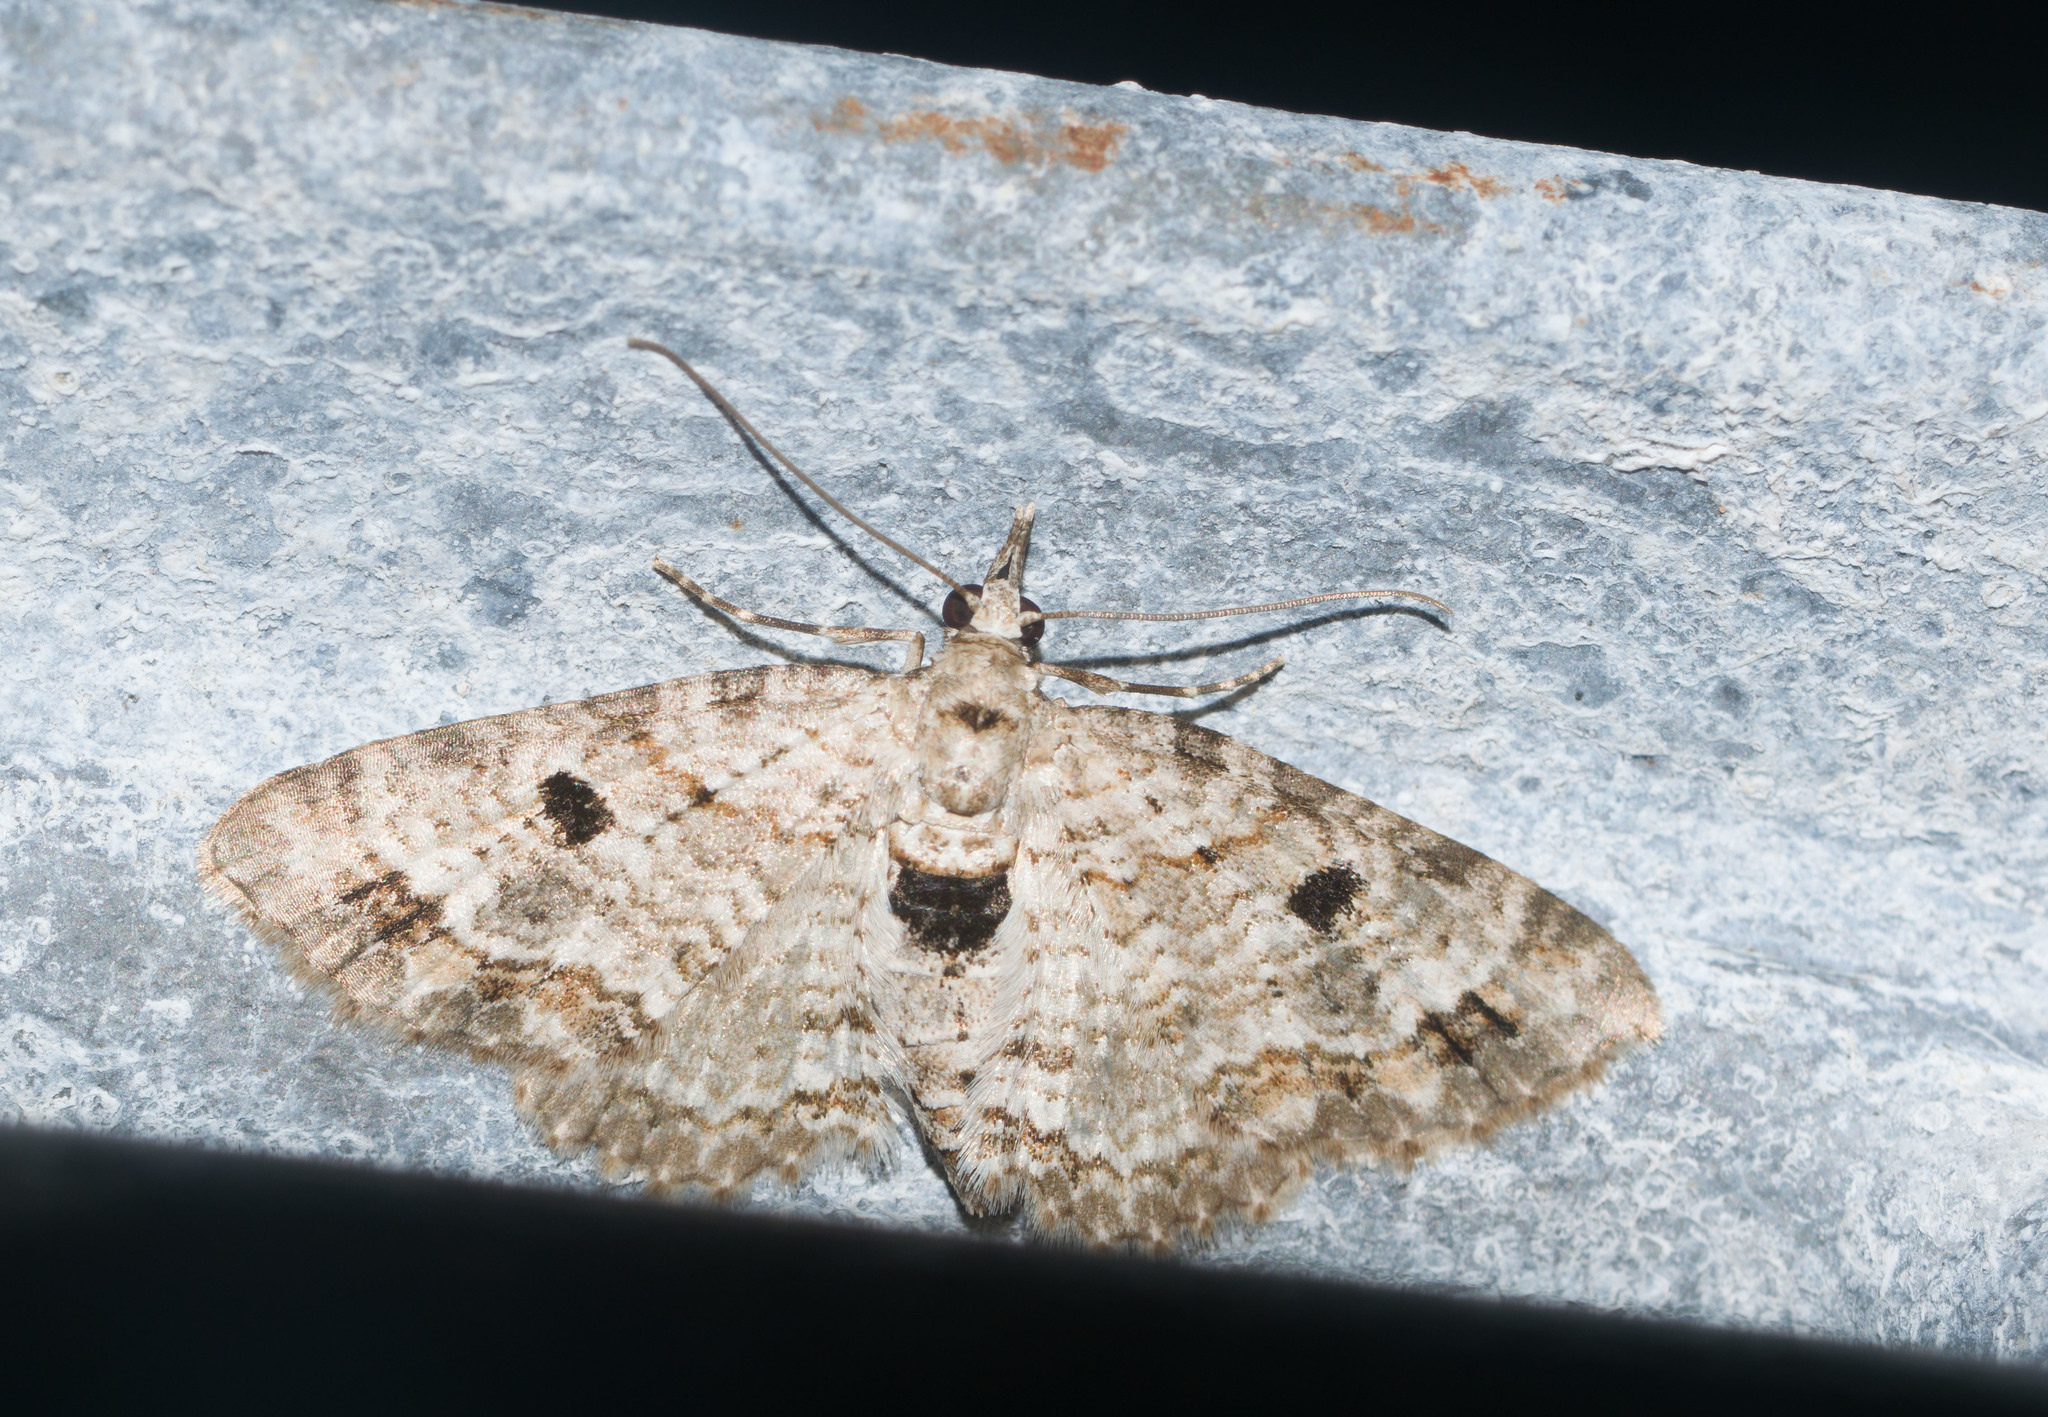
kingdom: Animalia
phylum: Arthropoda
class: Insecta
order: Lepidoptera
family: Geometridae
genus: Eupithecia
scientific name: Eupithecia monticolens
